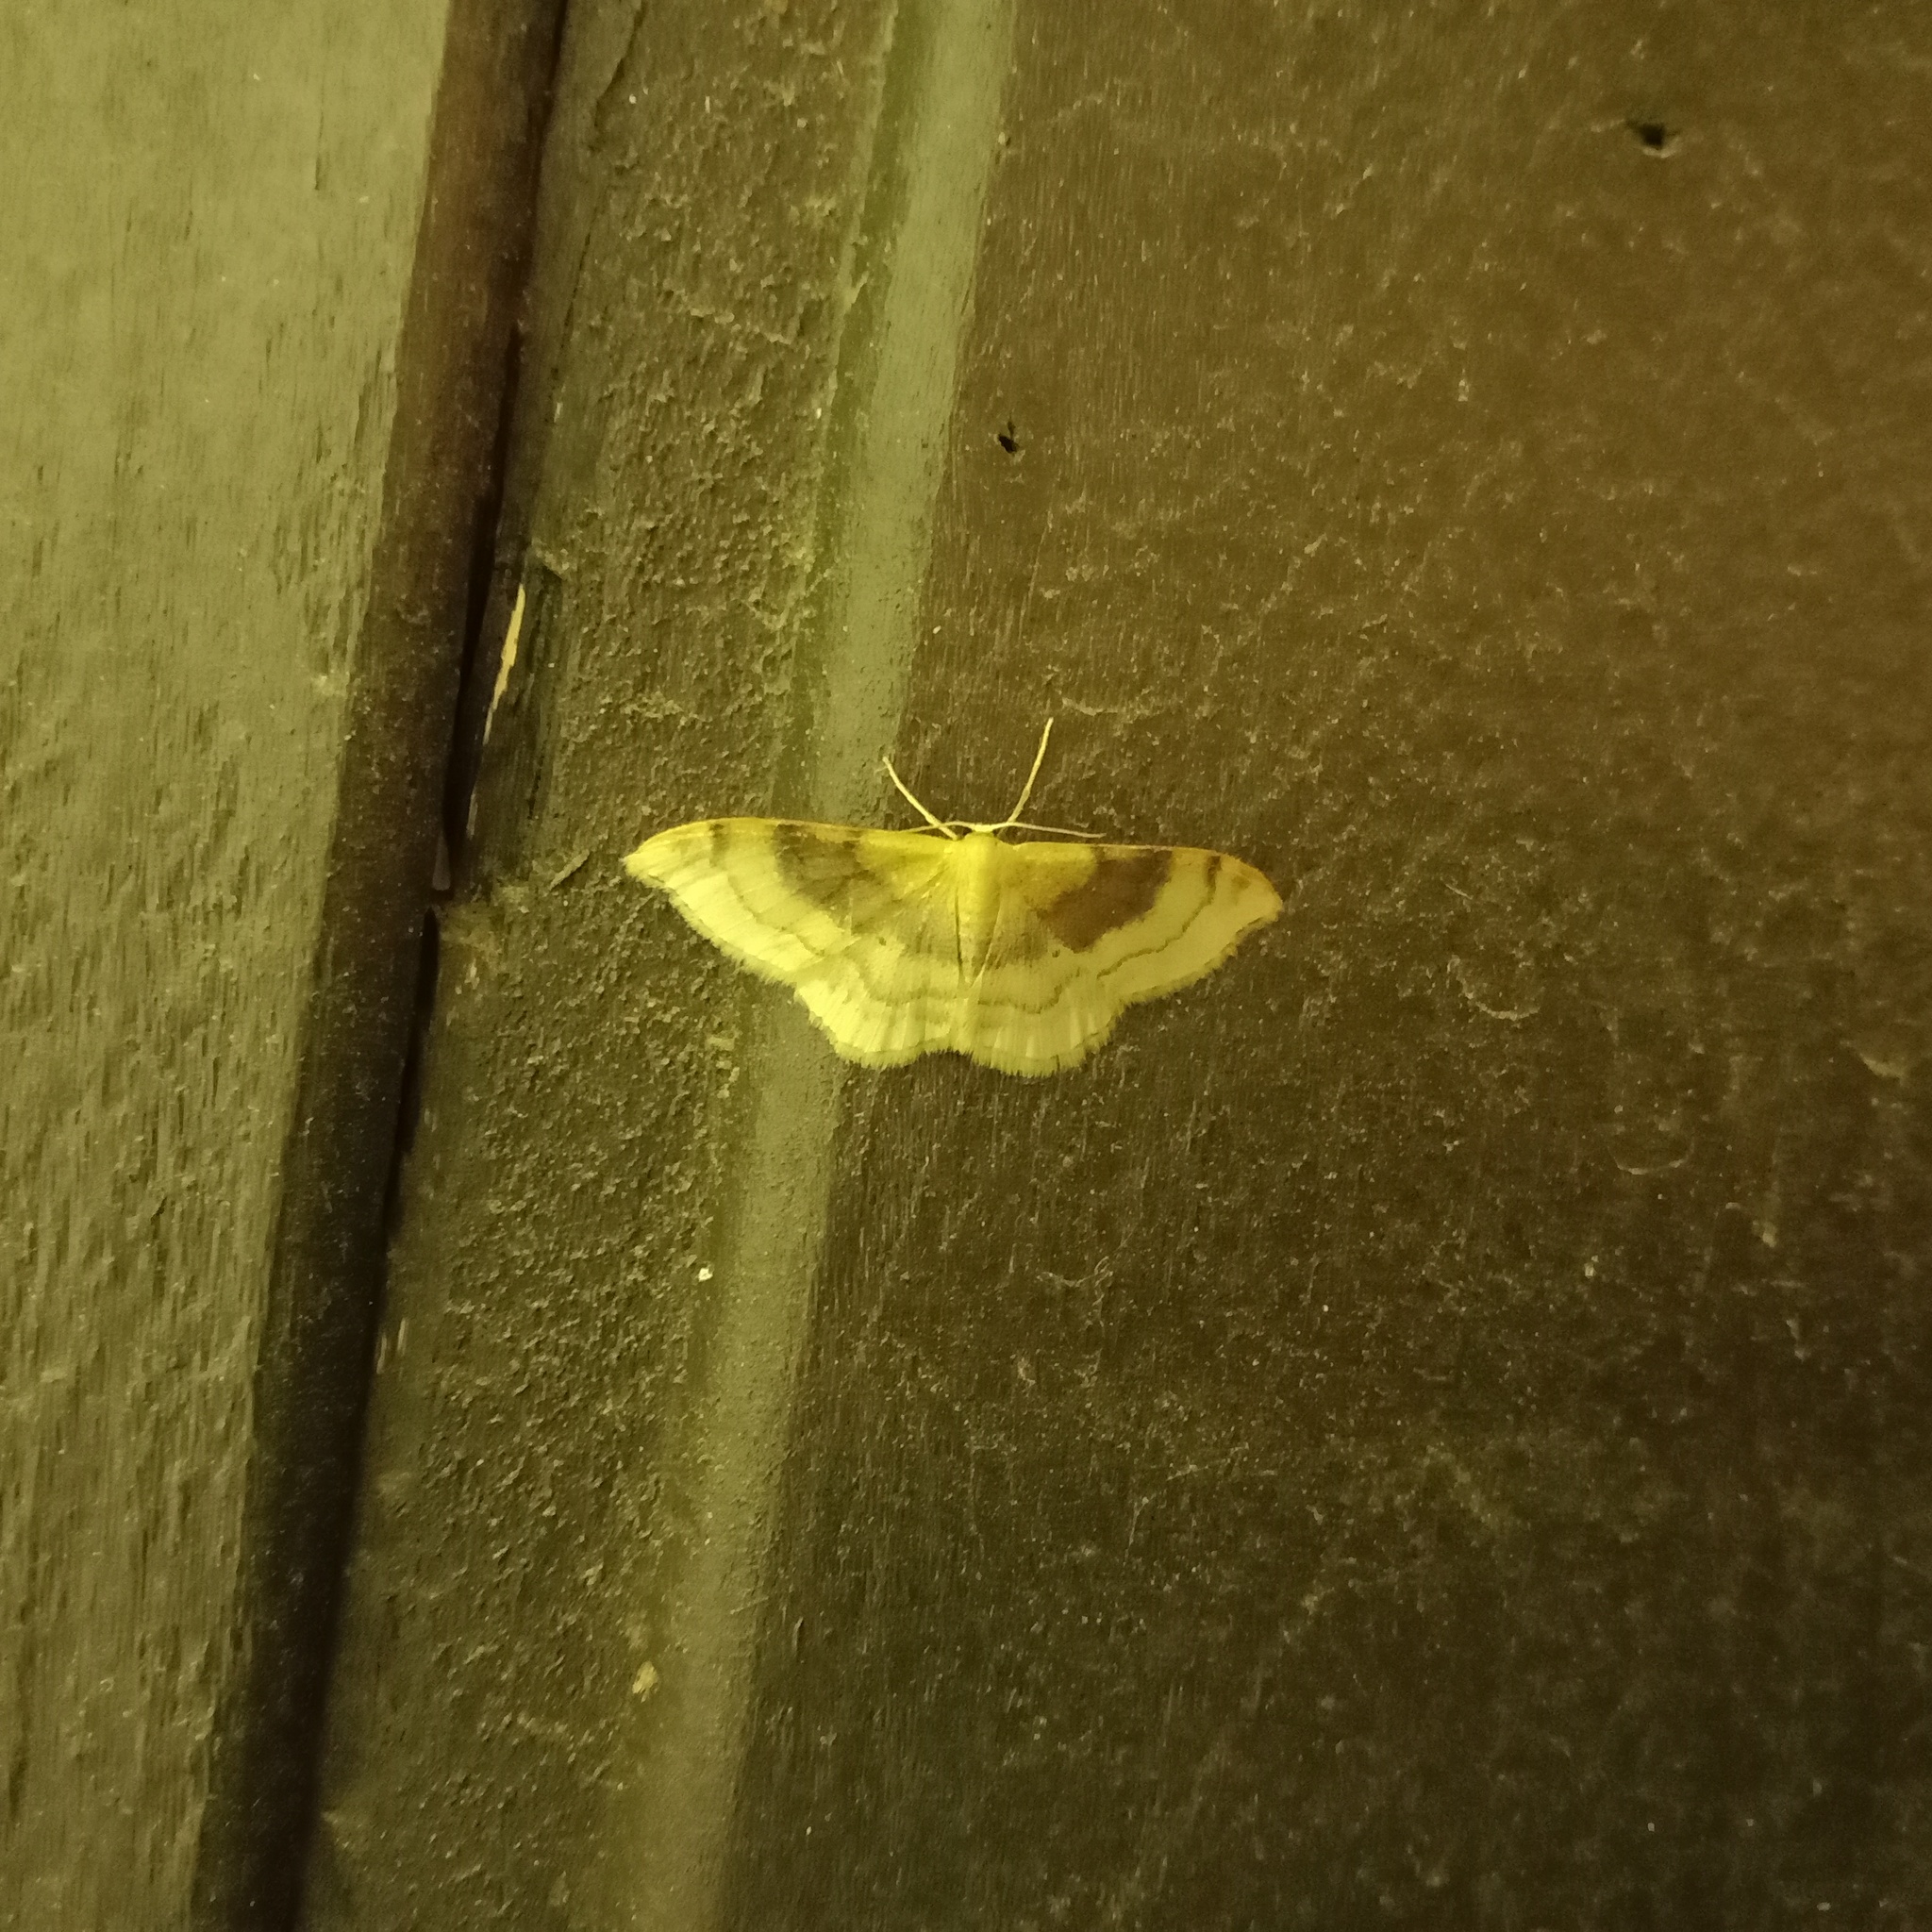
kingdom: Animalia
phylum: Arthropoda
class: Insecta
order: Lepidoptera
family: Geometridae
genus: Idaea
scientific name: Idaea degeneraria
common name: Portland ribbon wave
